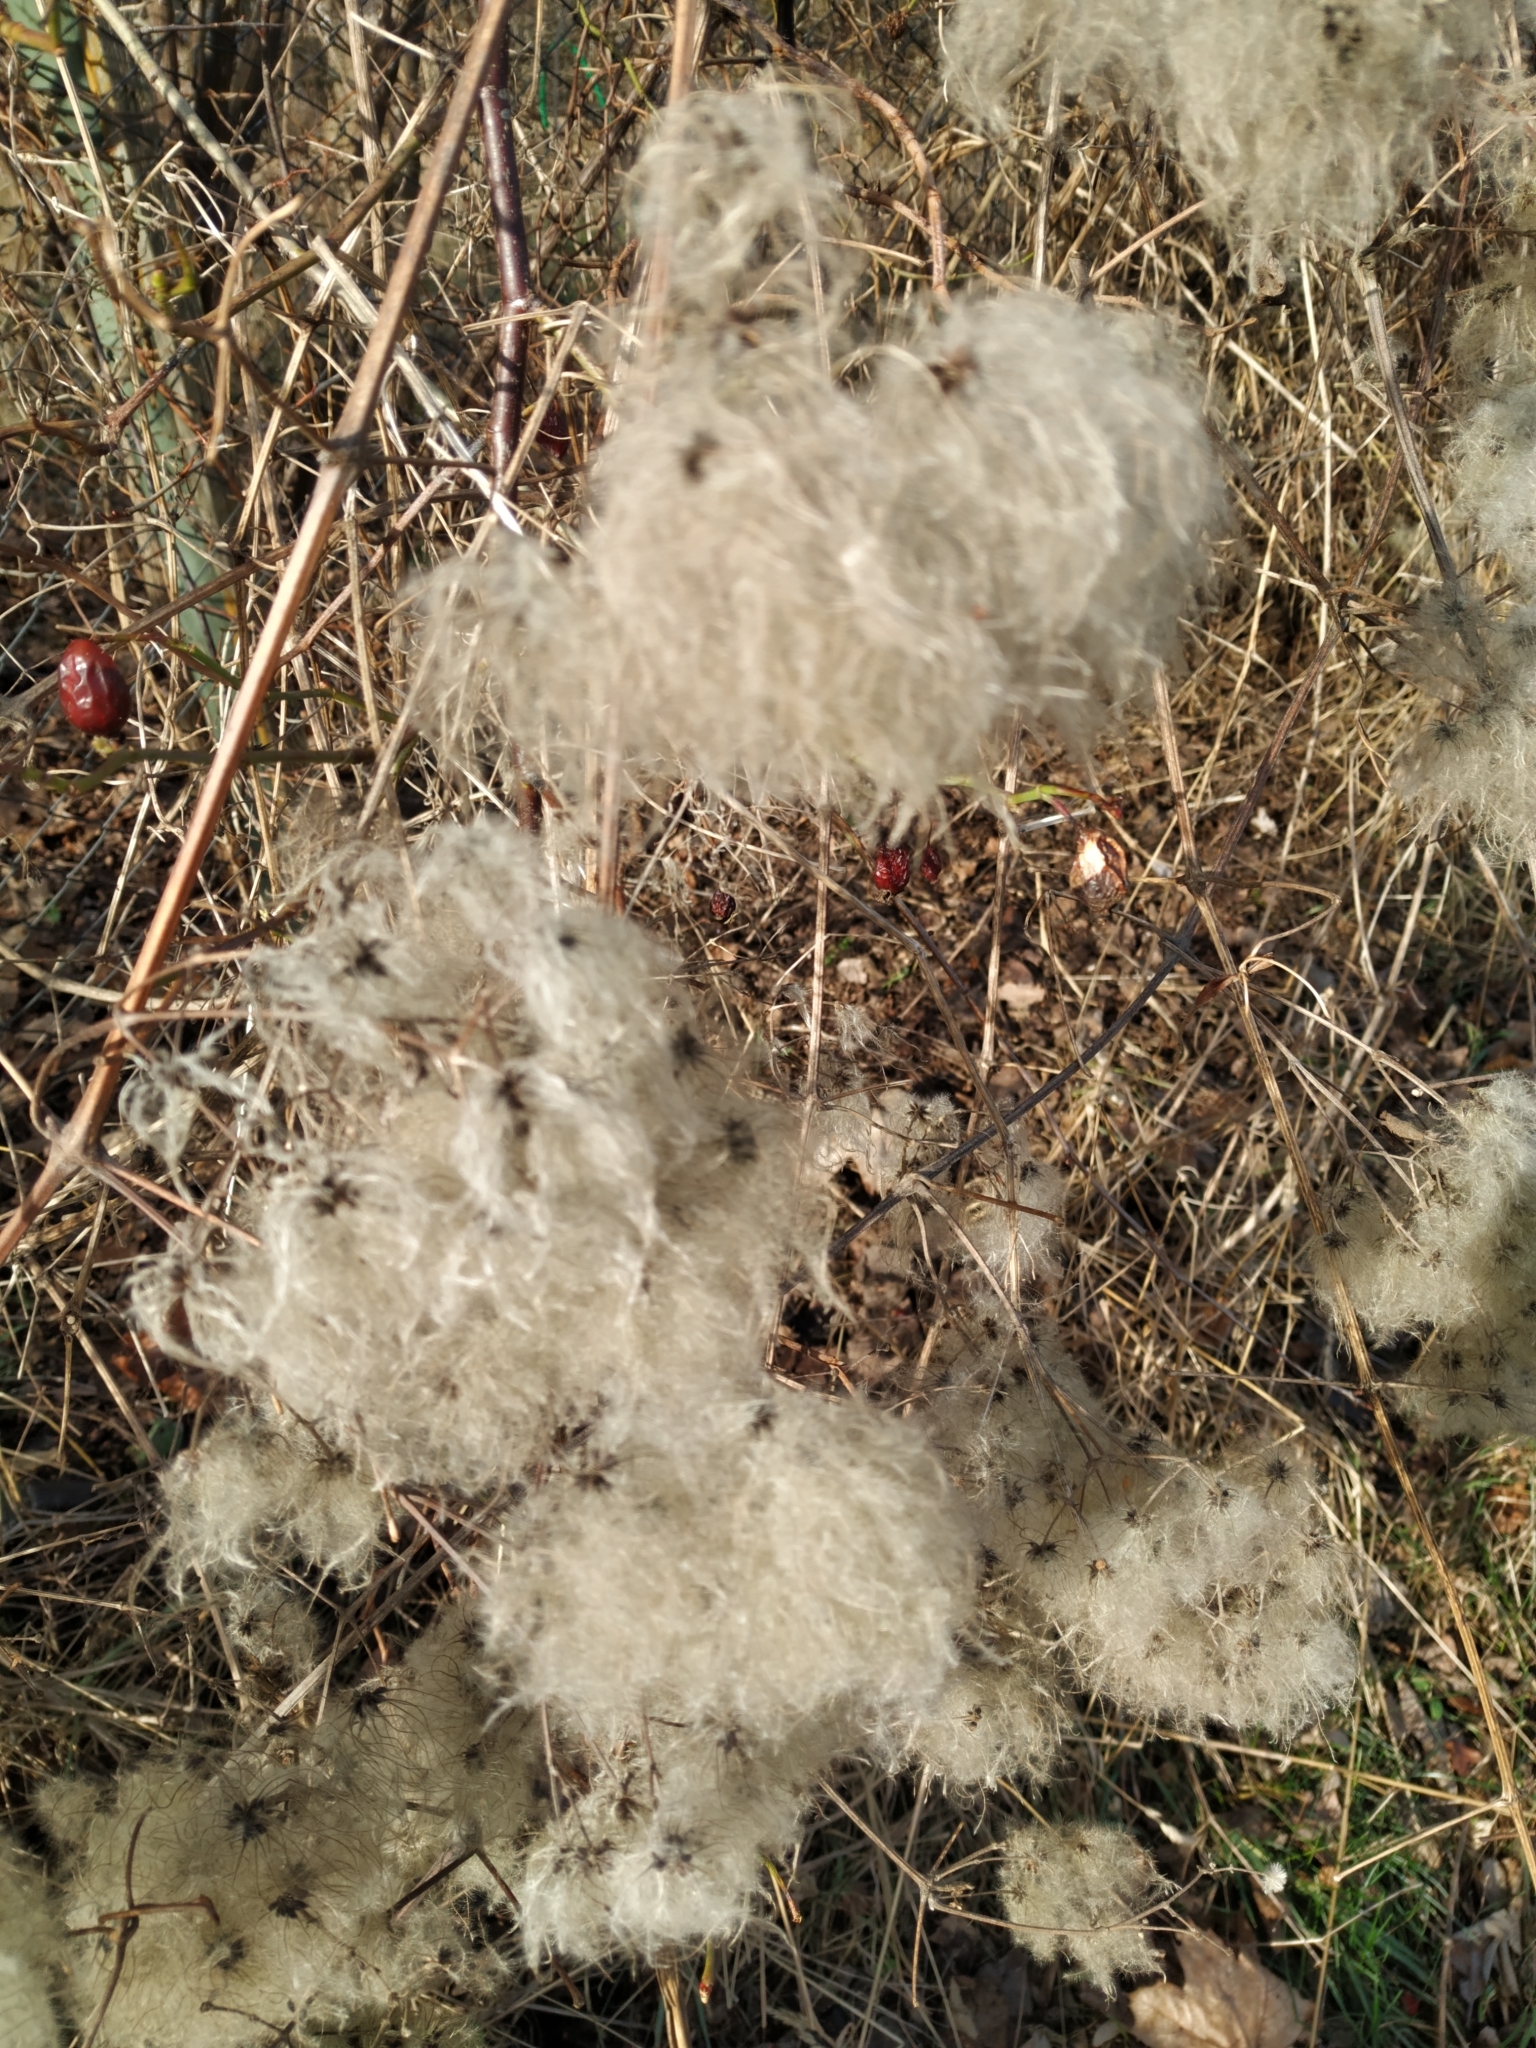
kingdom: Plantae
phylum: Tracheophyta
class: Magnoliopsida
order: Ranunculales
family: Ranunculaceae
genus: Clematis
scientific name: Clematis vitalba
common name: Evergreen clematis
